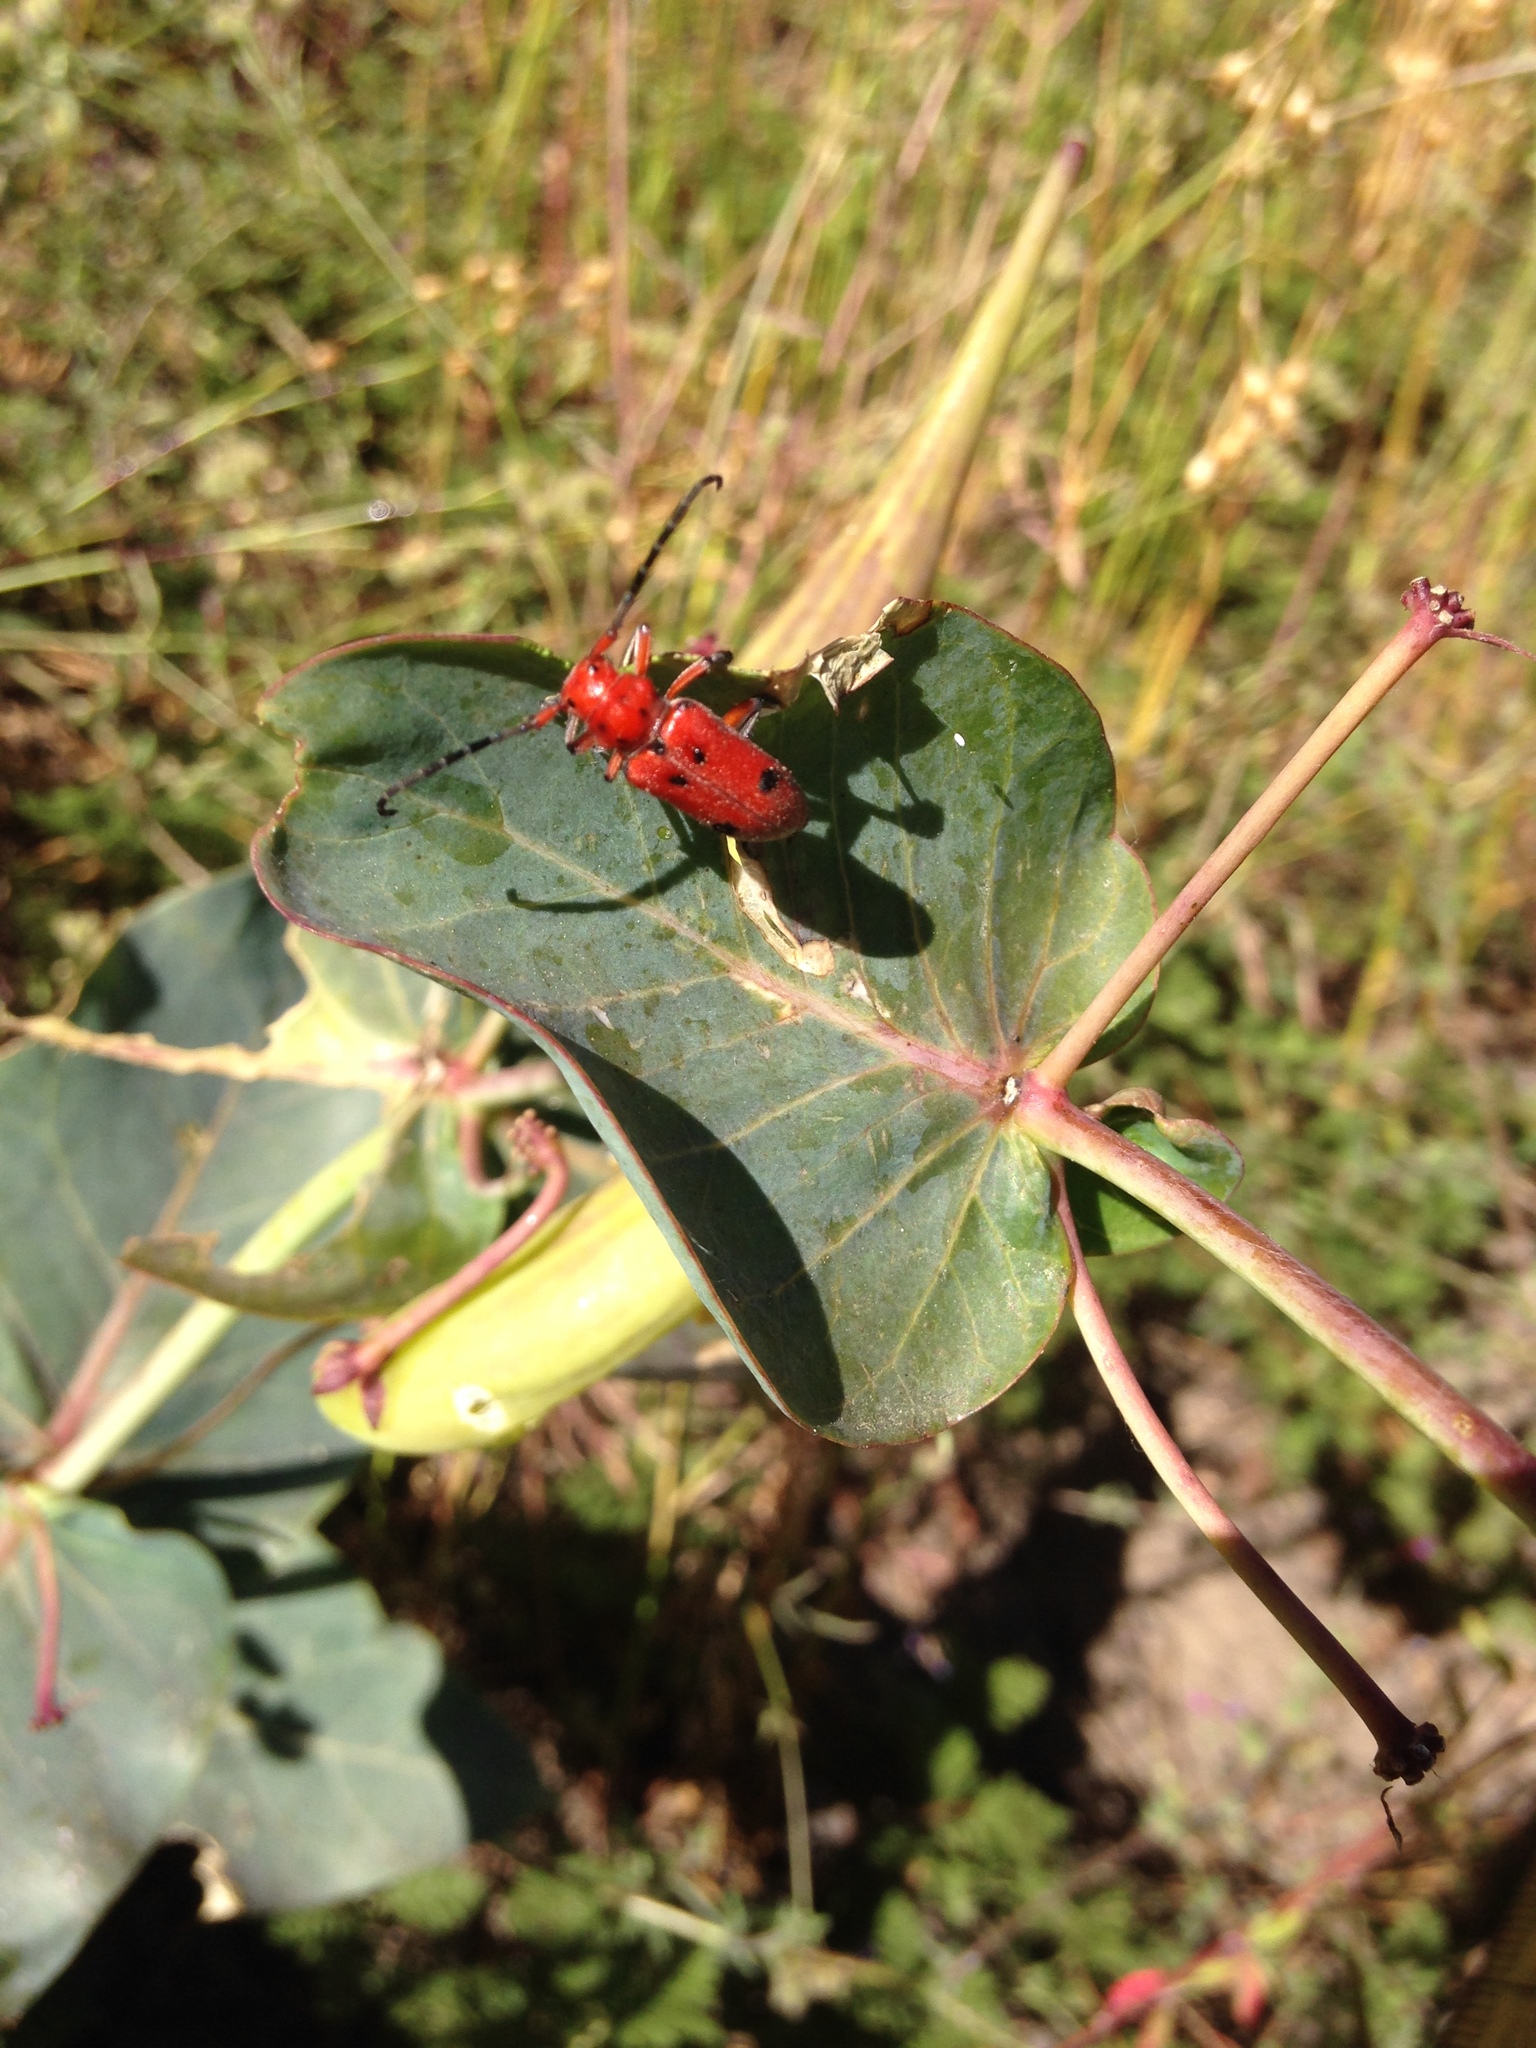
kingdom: Animalia
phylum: Arthropoda
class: Insecta
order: Coleoptera
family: Cerambycidae
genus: Tetraopes
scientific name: Tetraopes femoratus
